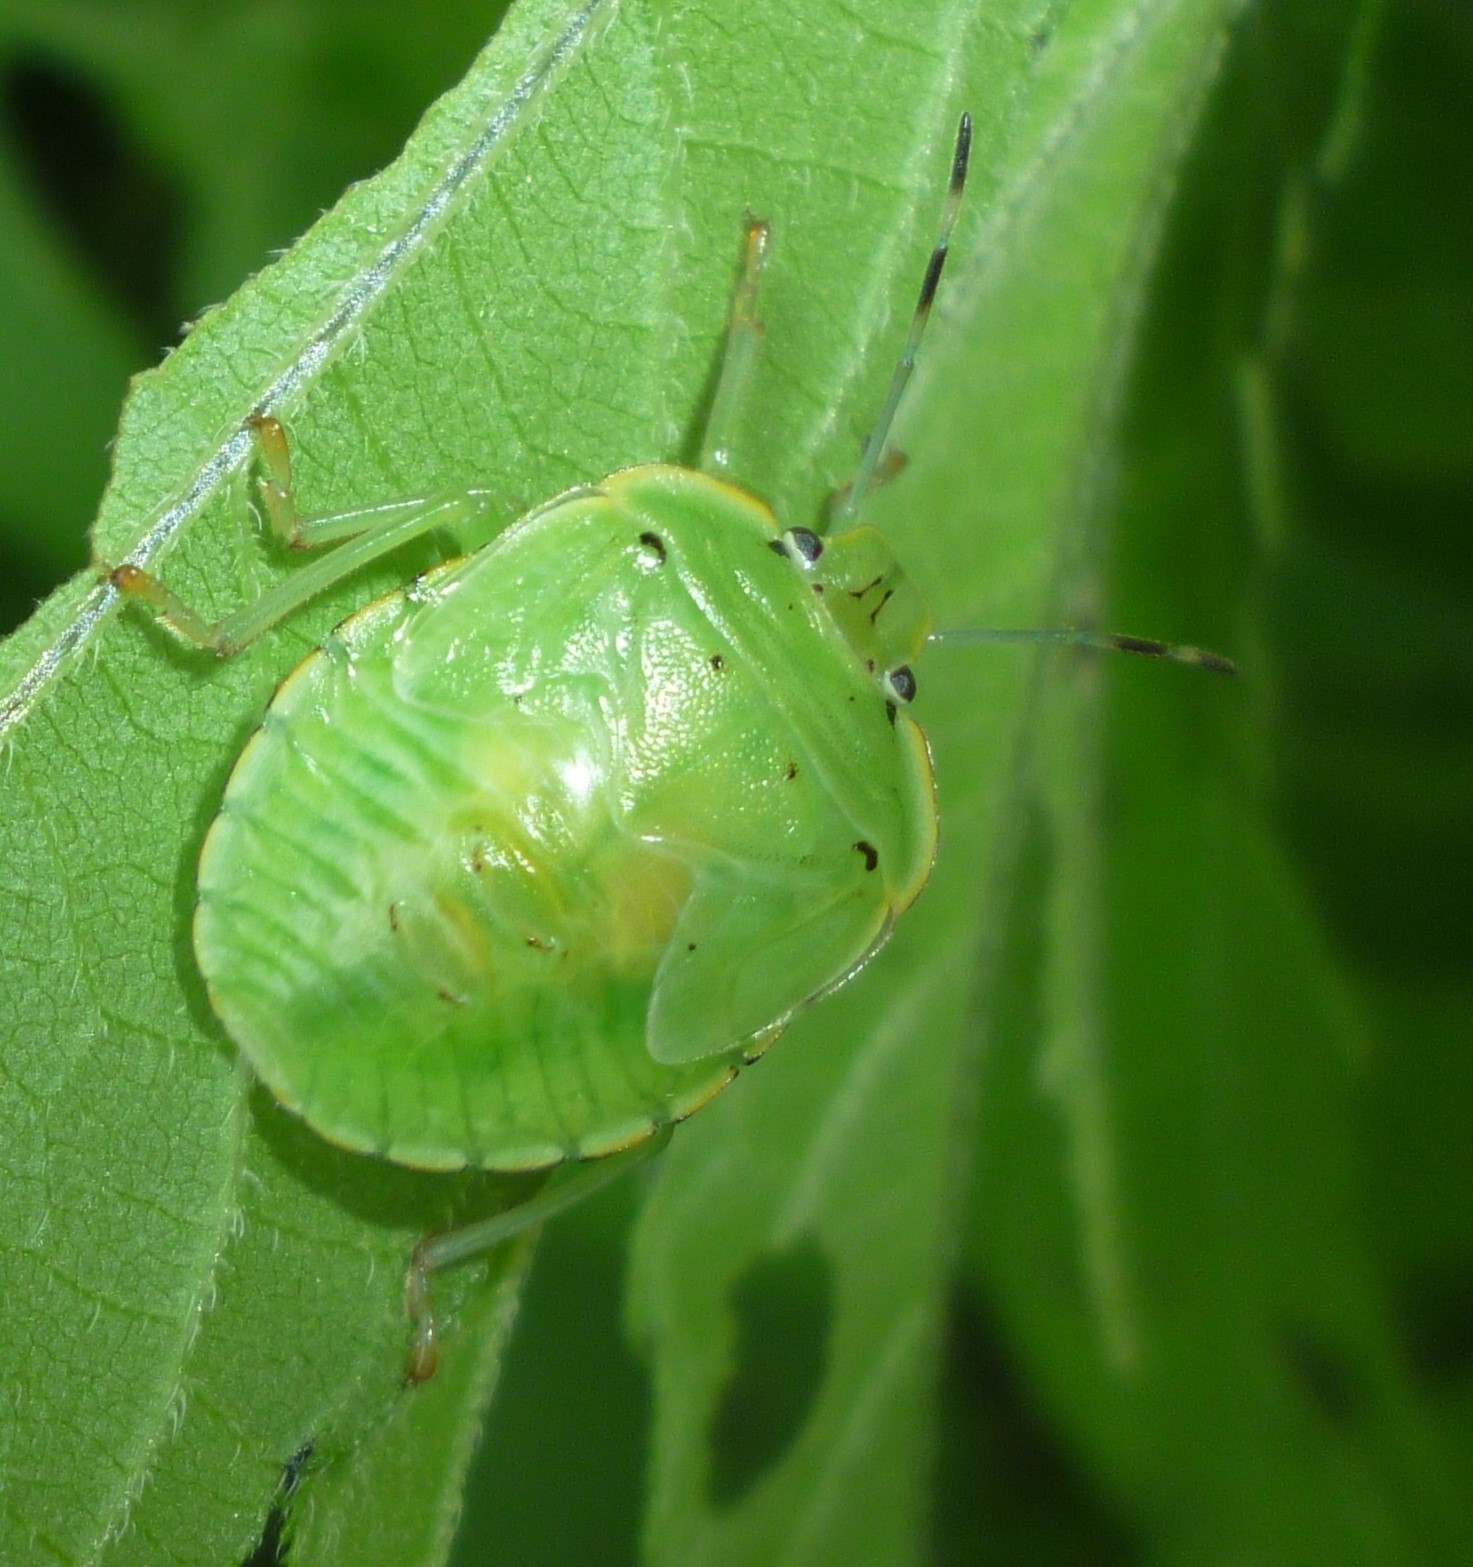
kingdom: Animalia
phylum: Arthropoda
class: Insecta
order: Hemiptera
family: Pentatomidae
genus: Chinavia
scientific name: Chinavia hilaris
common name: Green stink bug
